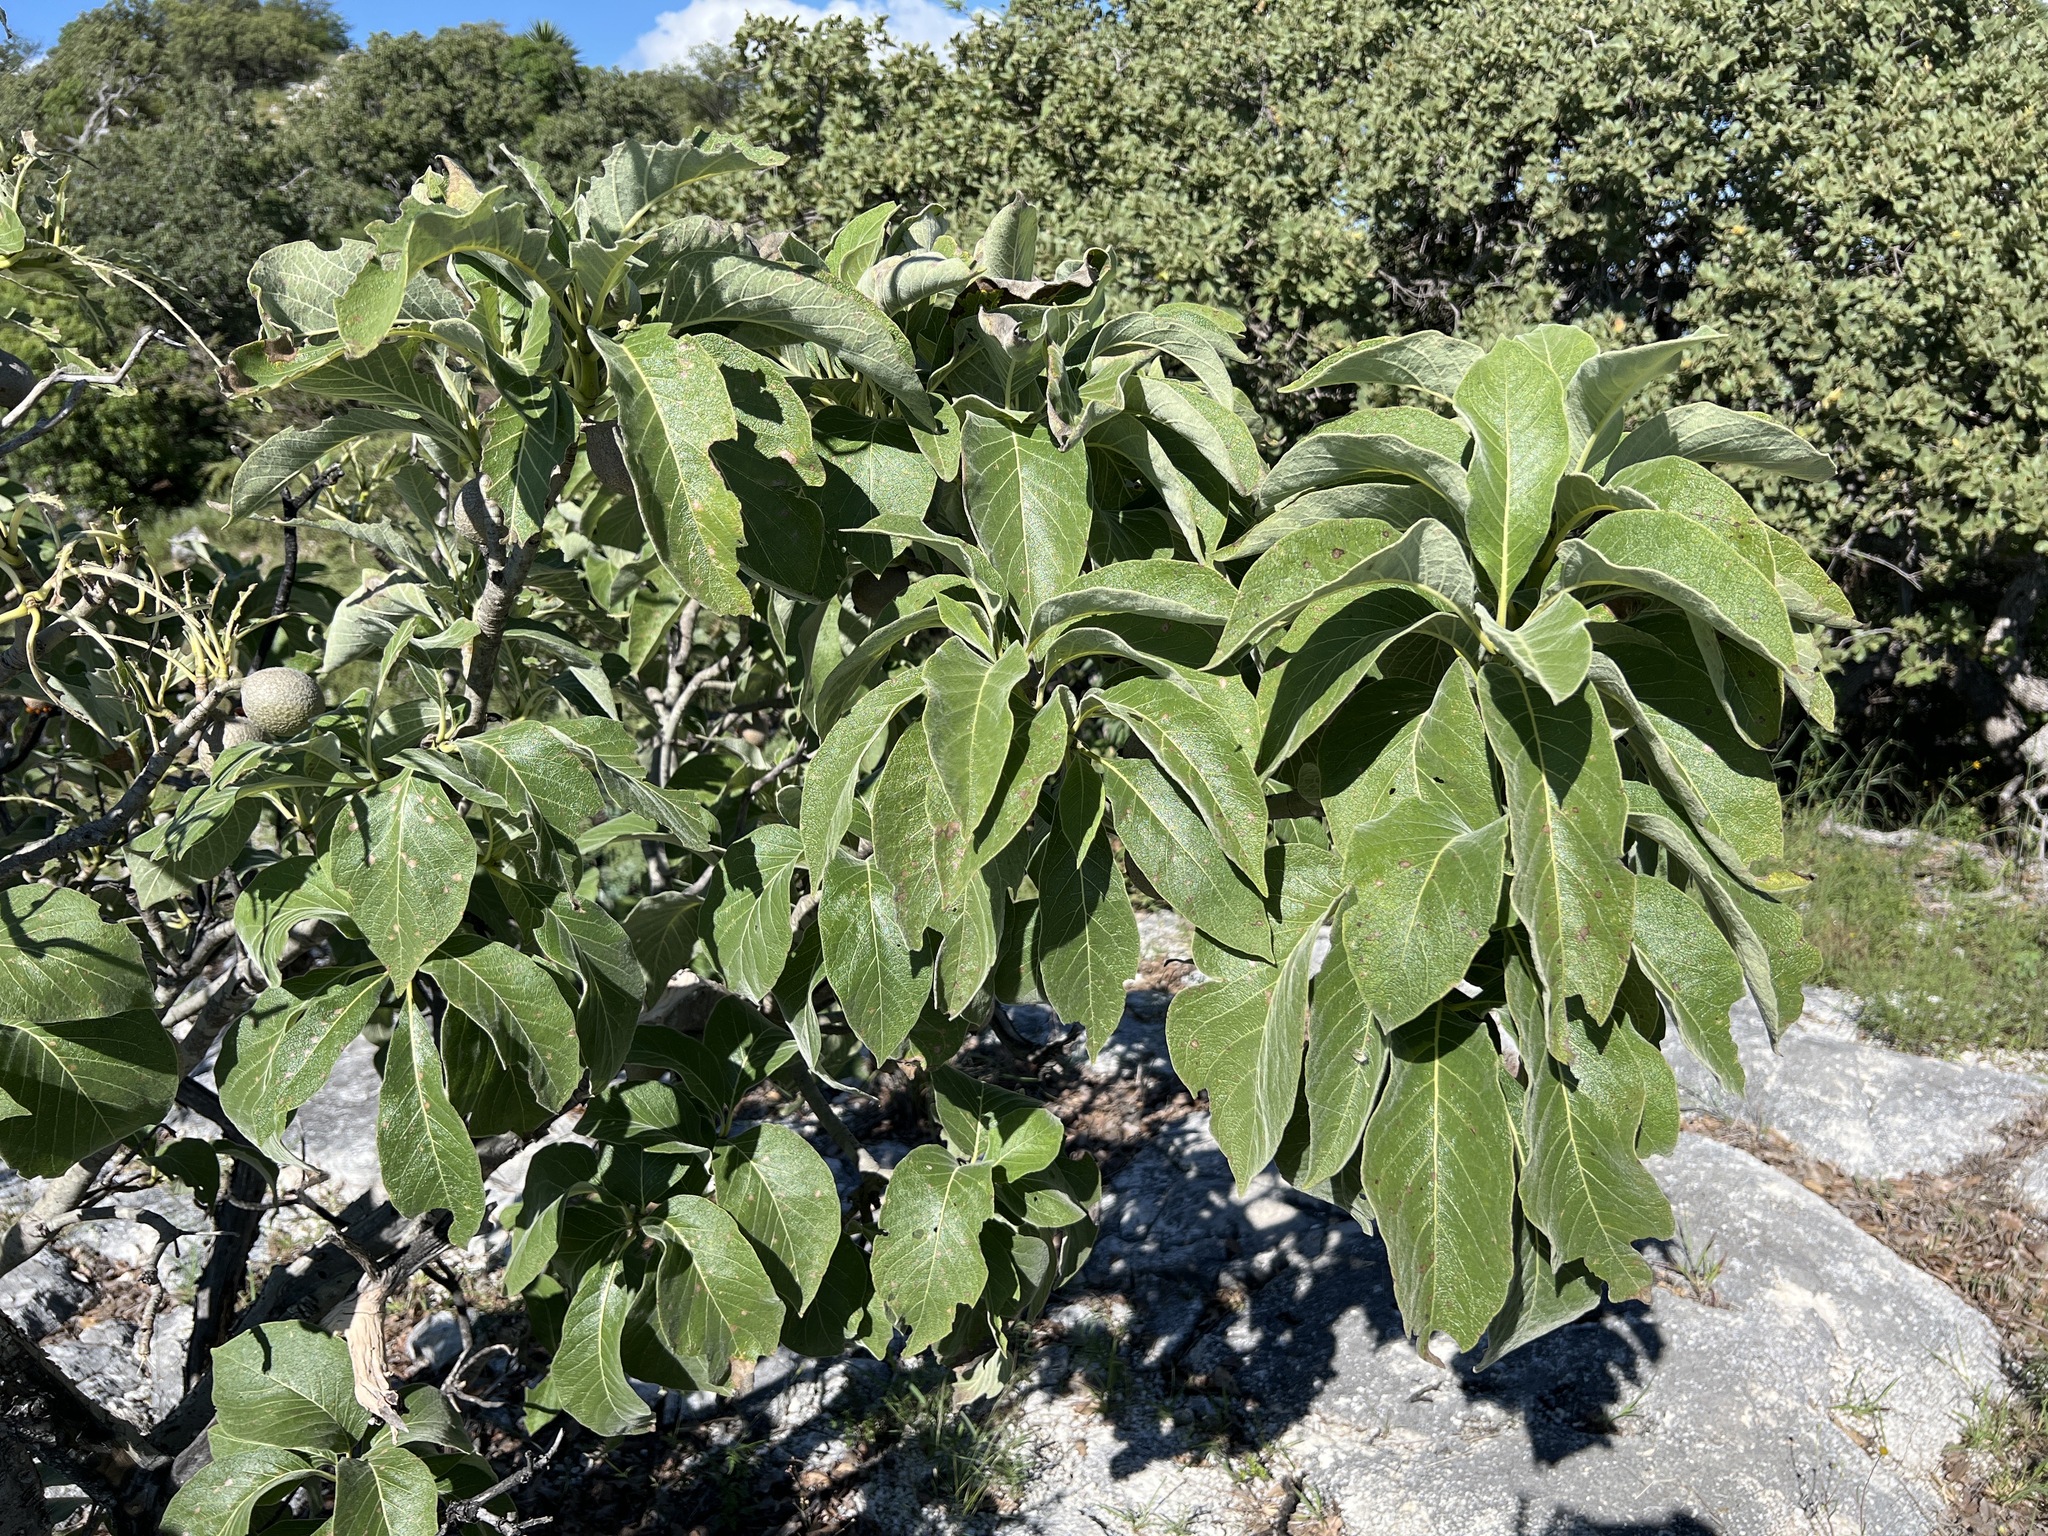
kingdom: Plantae
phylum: Tracheophyta
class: Magnoliopsida
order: Gentianales
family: Rubiaceae
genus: Randia
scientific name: Randia mollifolia
